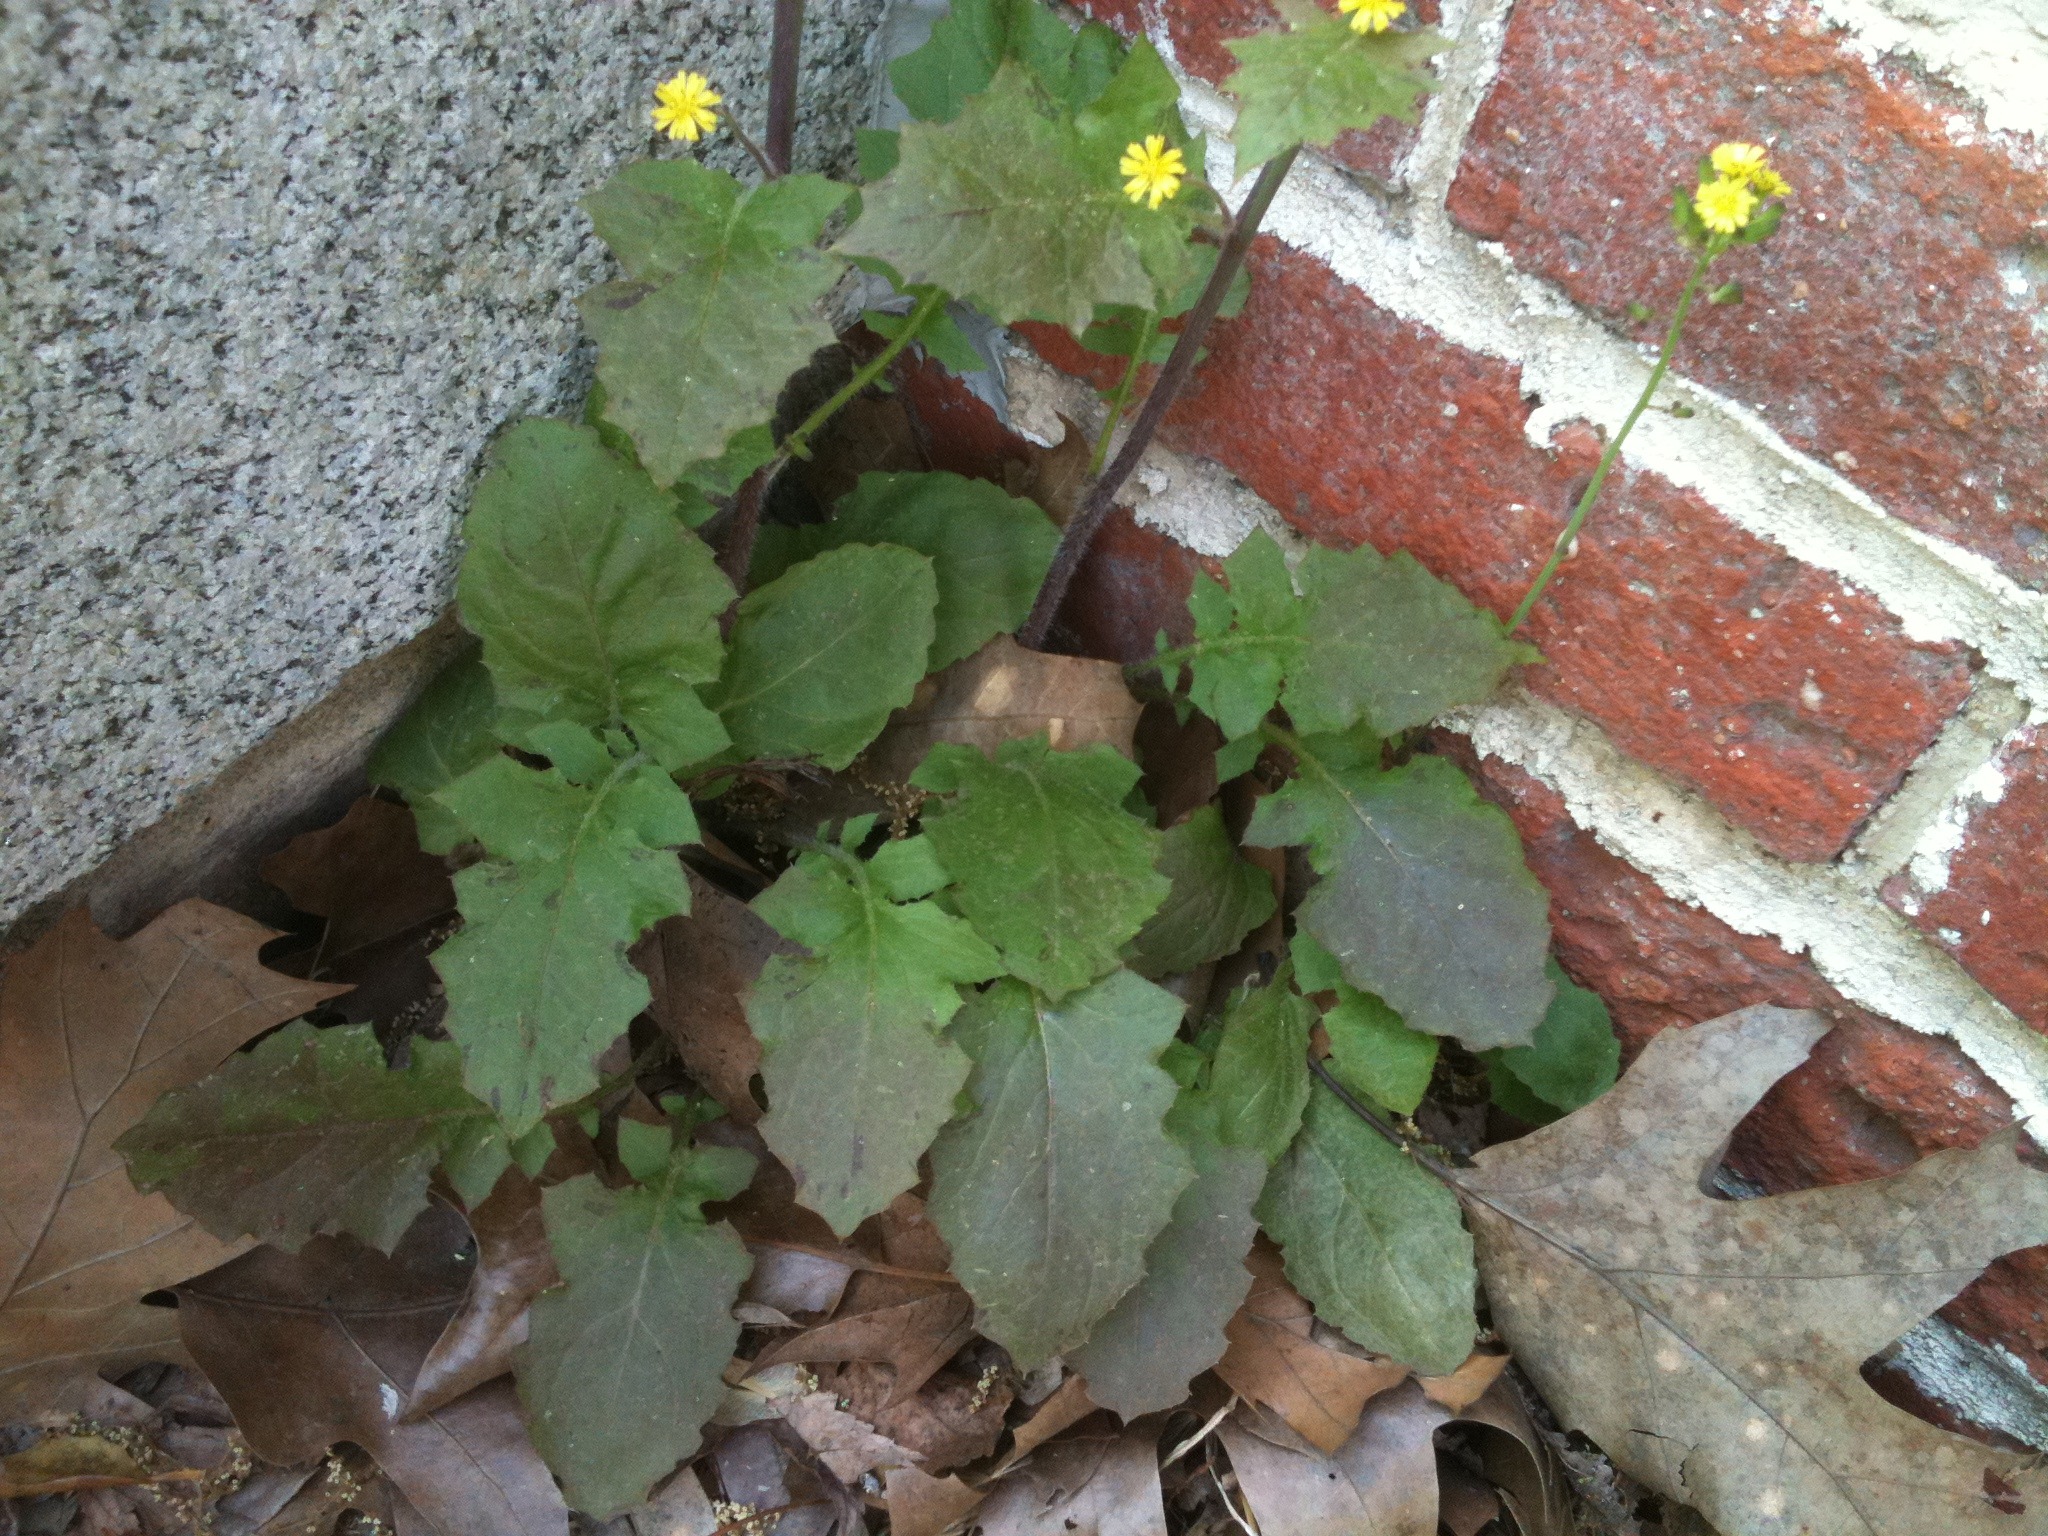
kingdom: Plantae
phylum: Tracheophyta
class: Magnoliopsida
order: Asterales
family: Asteraceae
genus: Youngia
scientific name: Youngia japonica
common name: Oriental false hawksbeard
